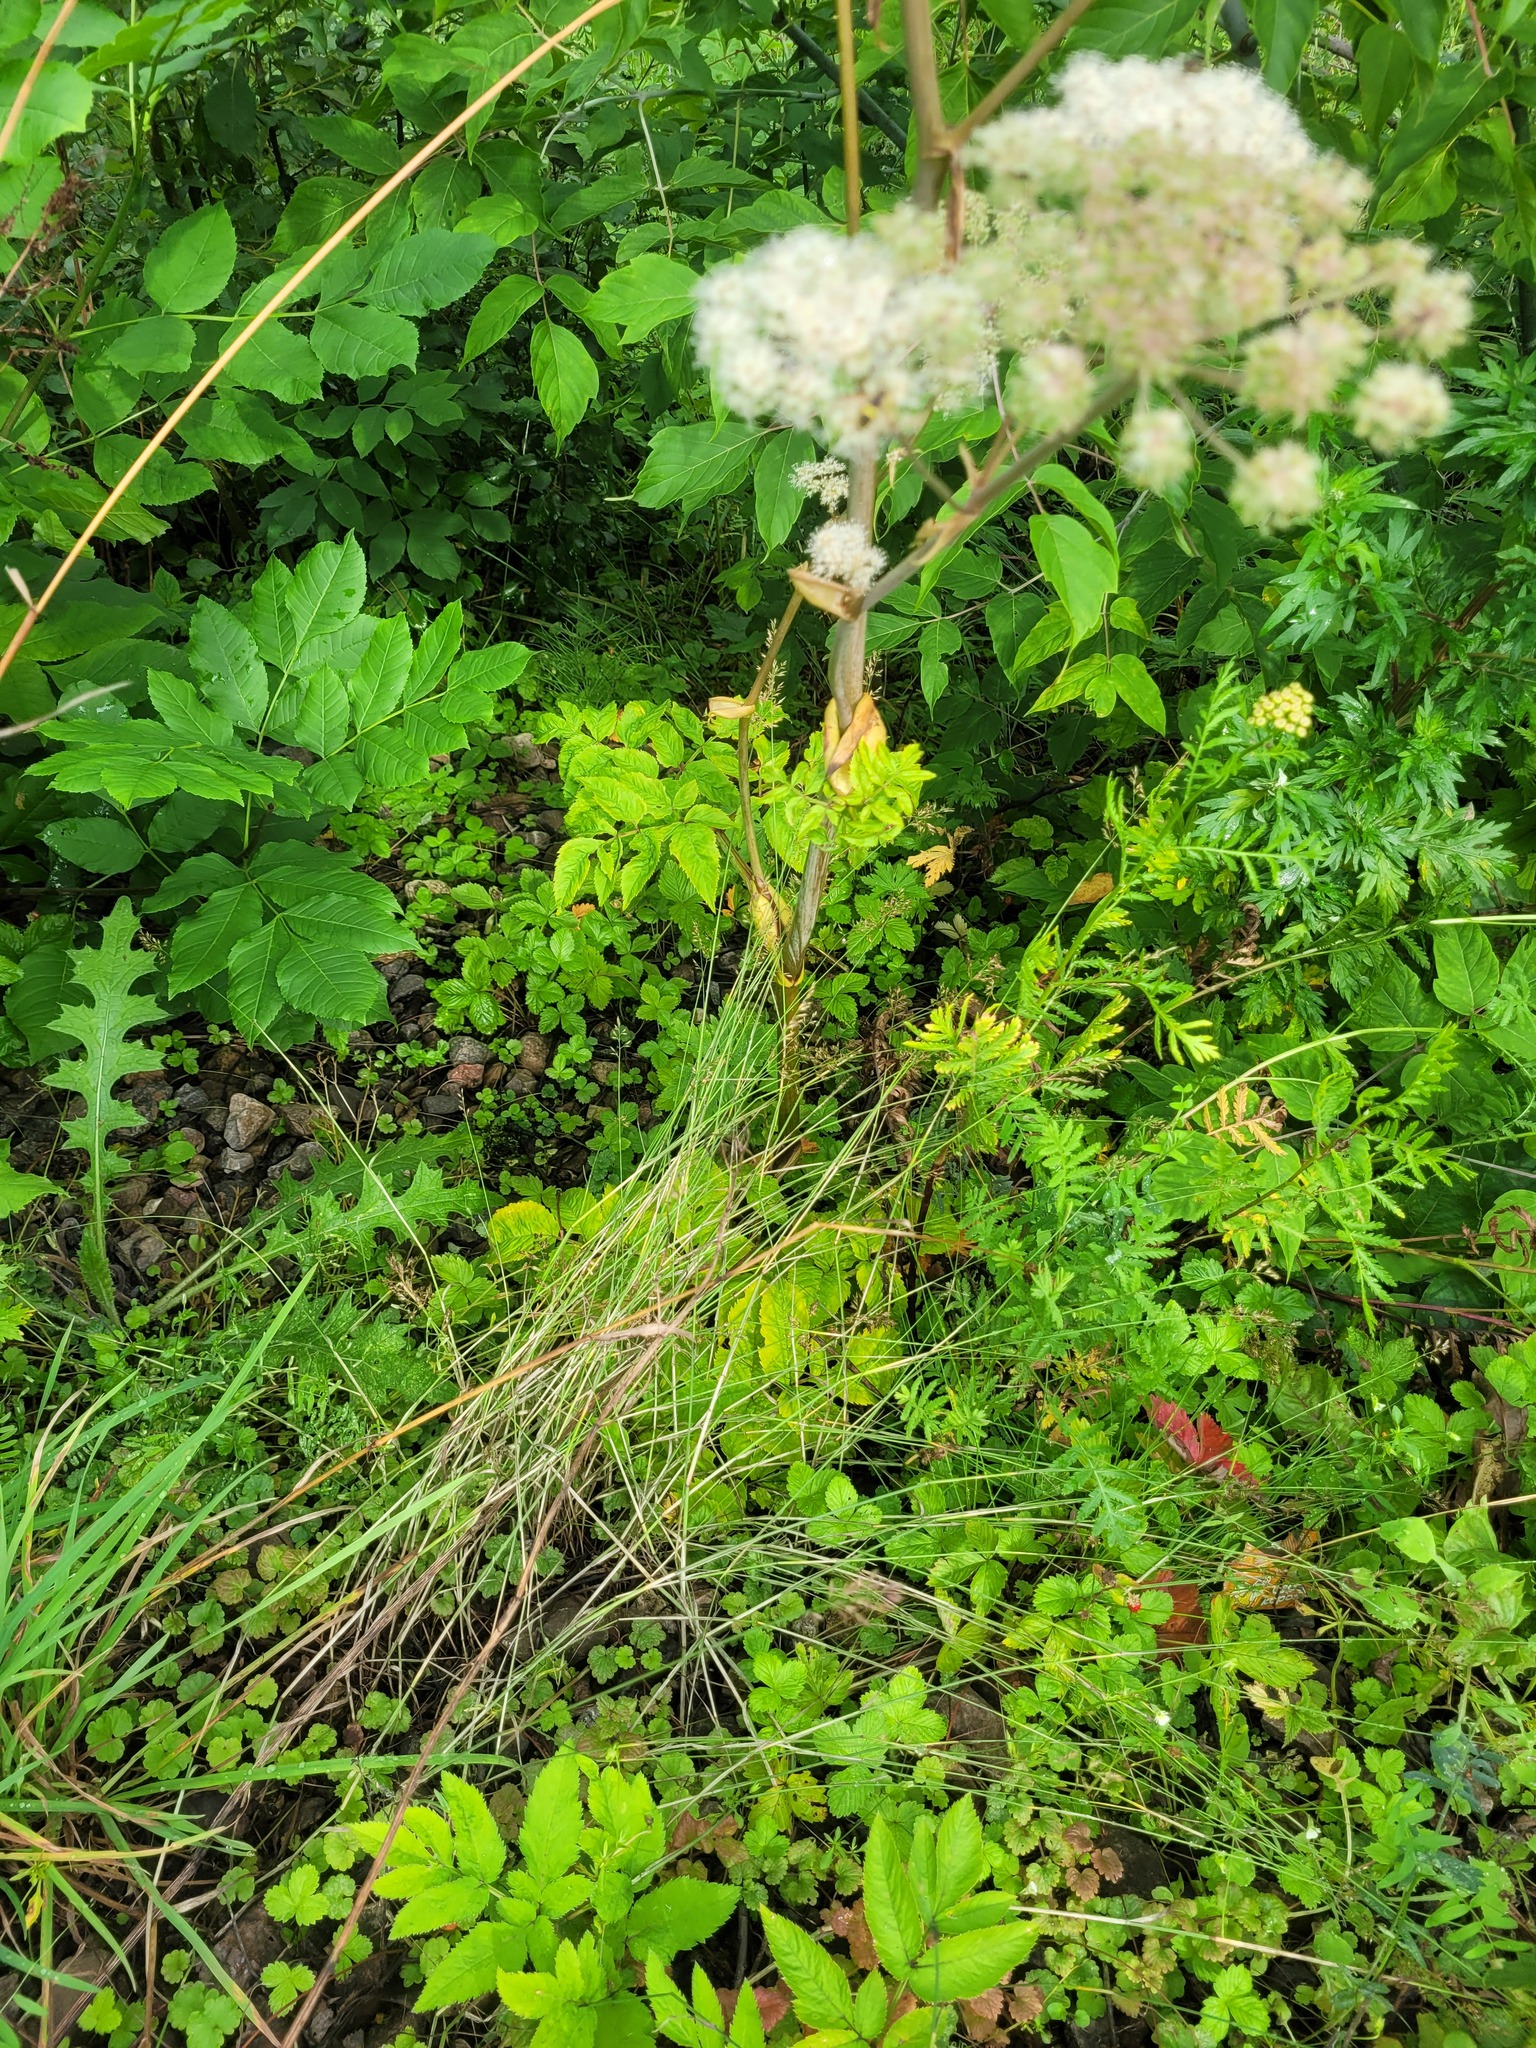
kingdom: Plantae
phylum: Tracheophyta
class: Liliopsida
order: Poales
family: Poaceae
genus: Poa
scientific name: Poa compressa
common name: Canada bluegrass
